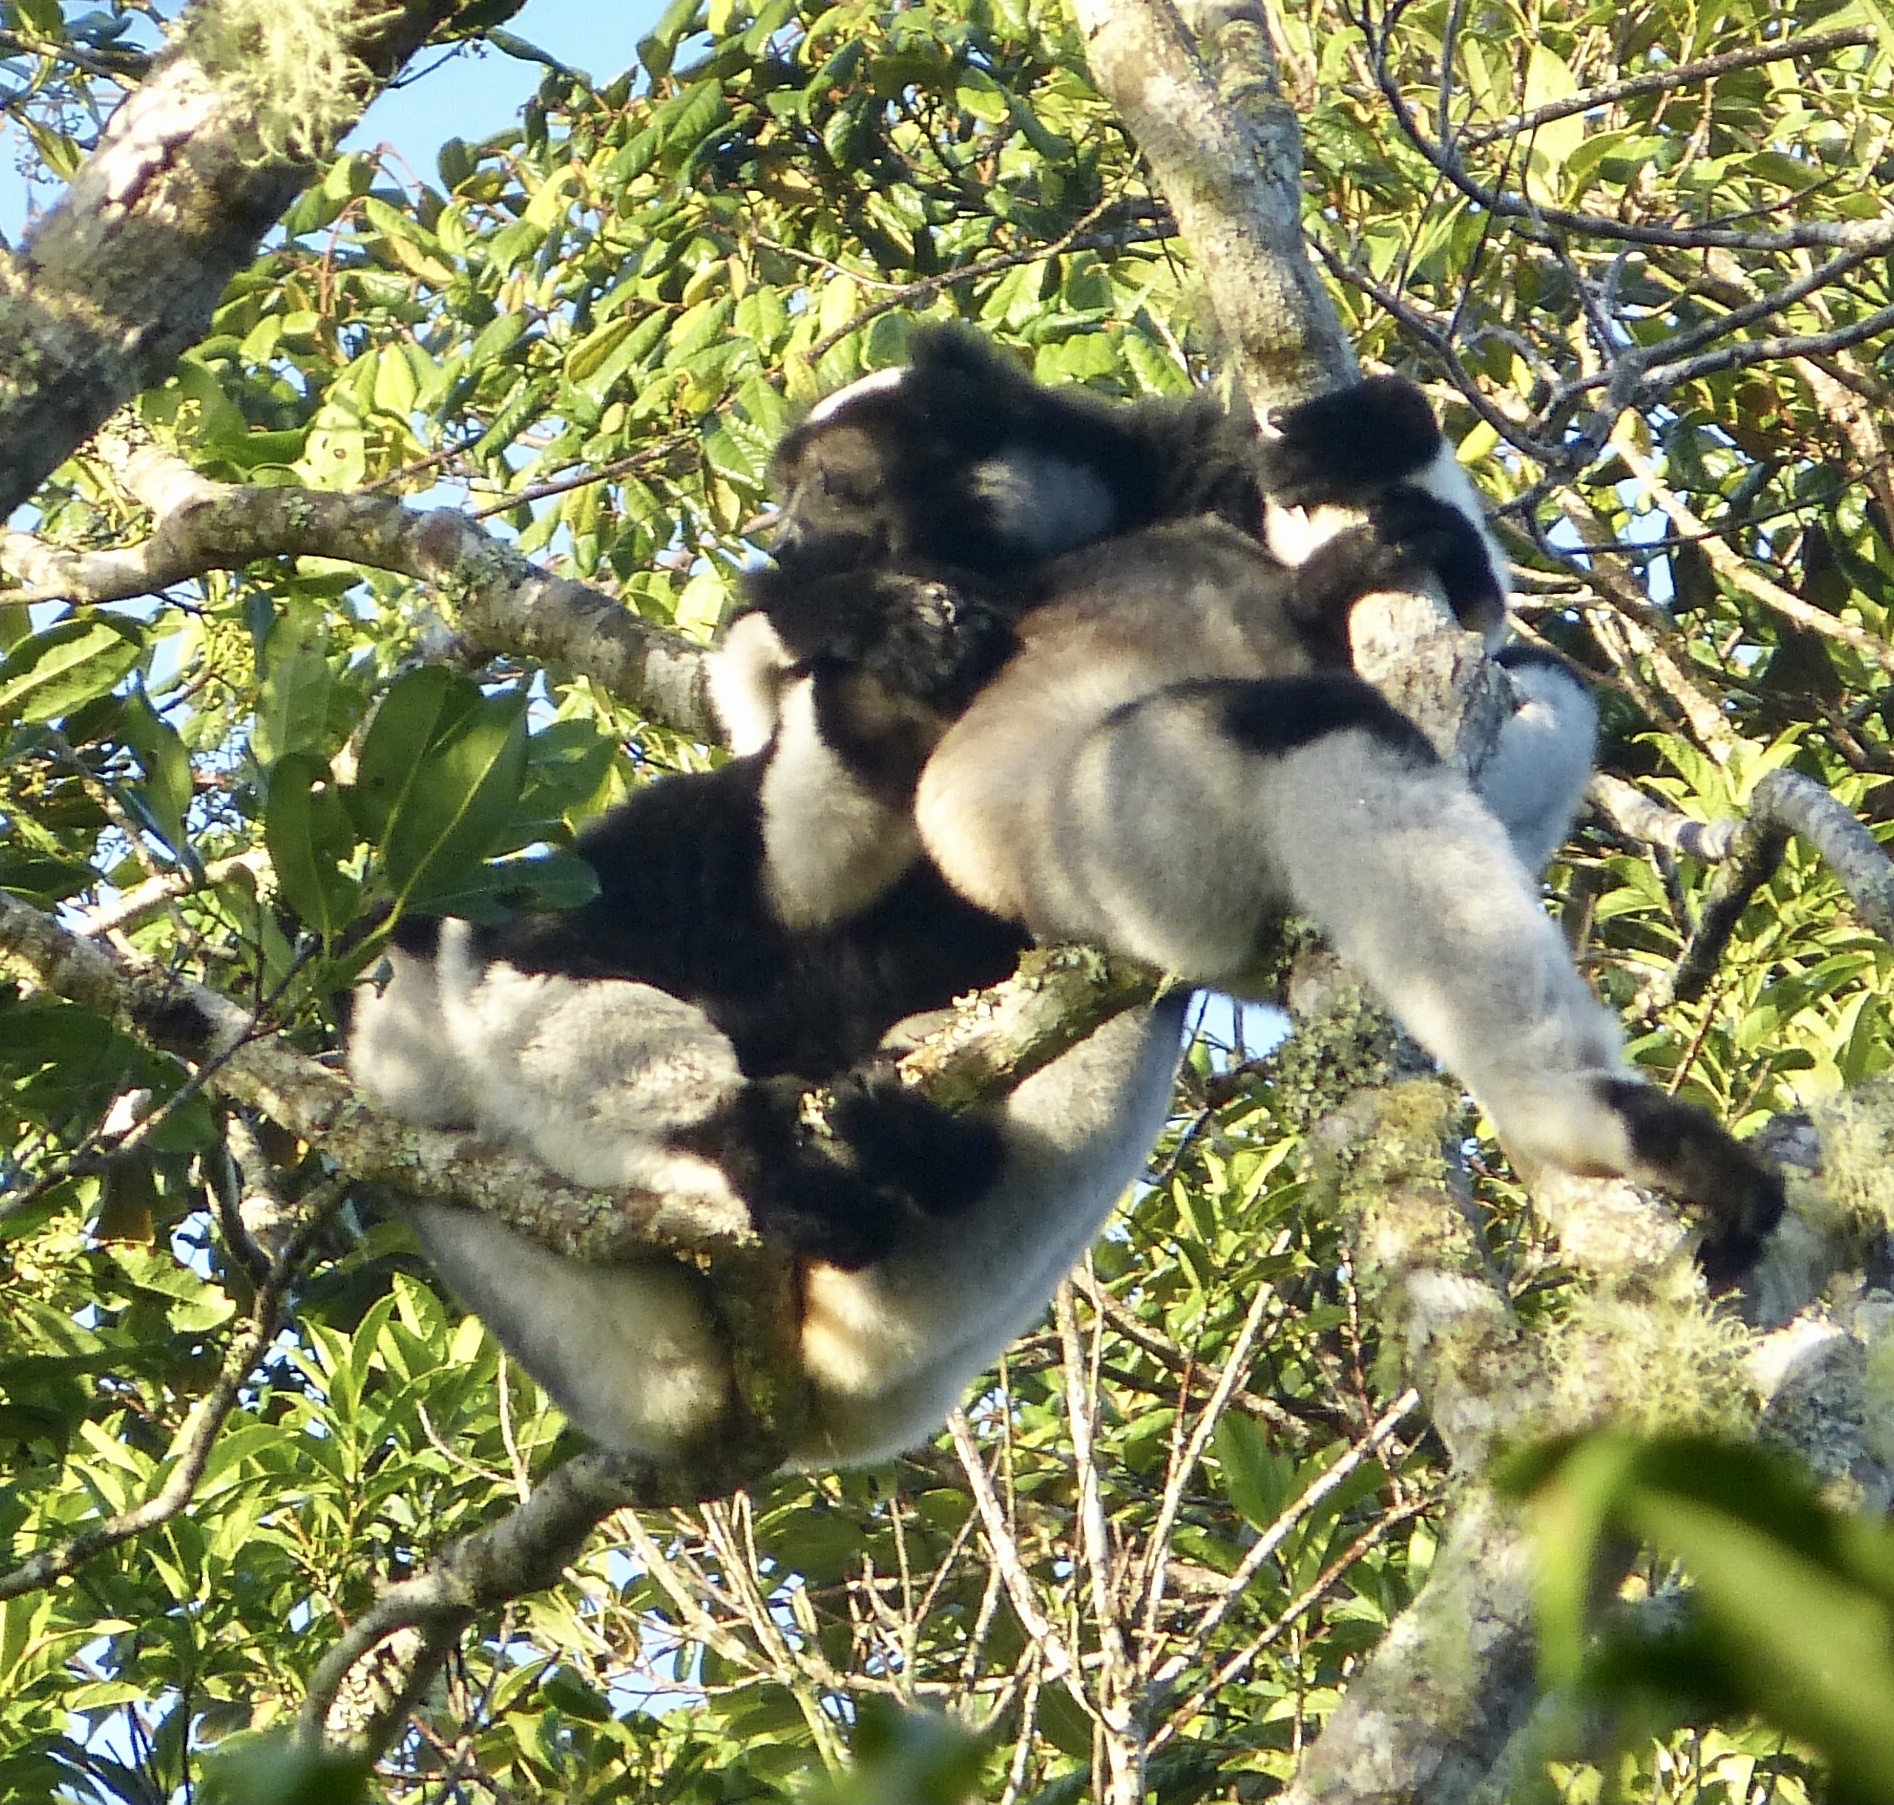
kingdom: Animalia
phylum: Chordata
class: Mammalia
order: Primates
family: Indriidae
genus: Indri
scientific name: Indri indri
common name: Indri
